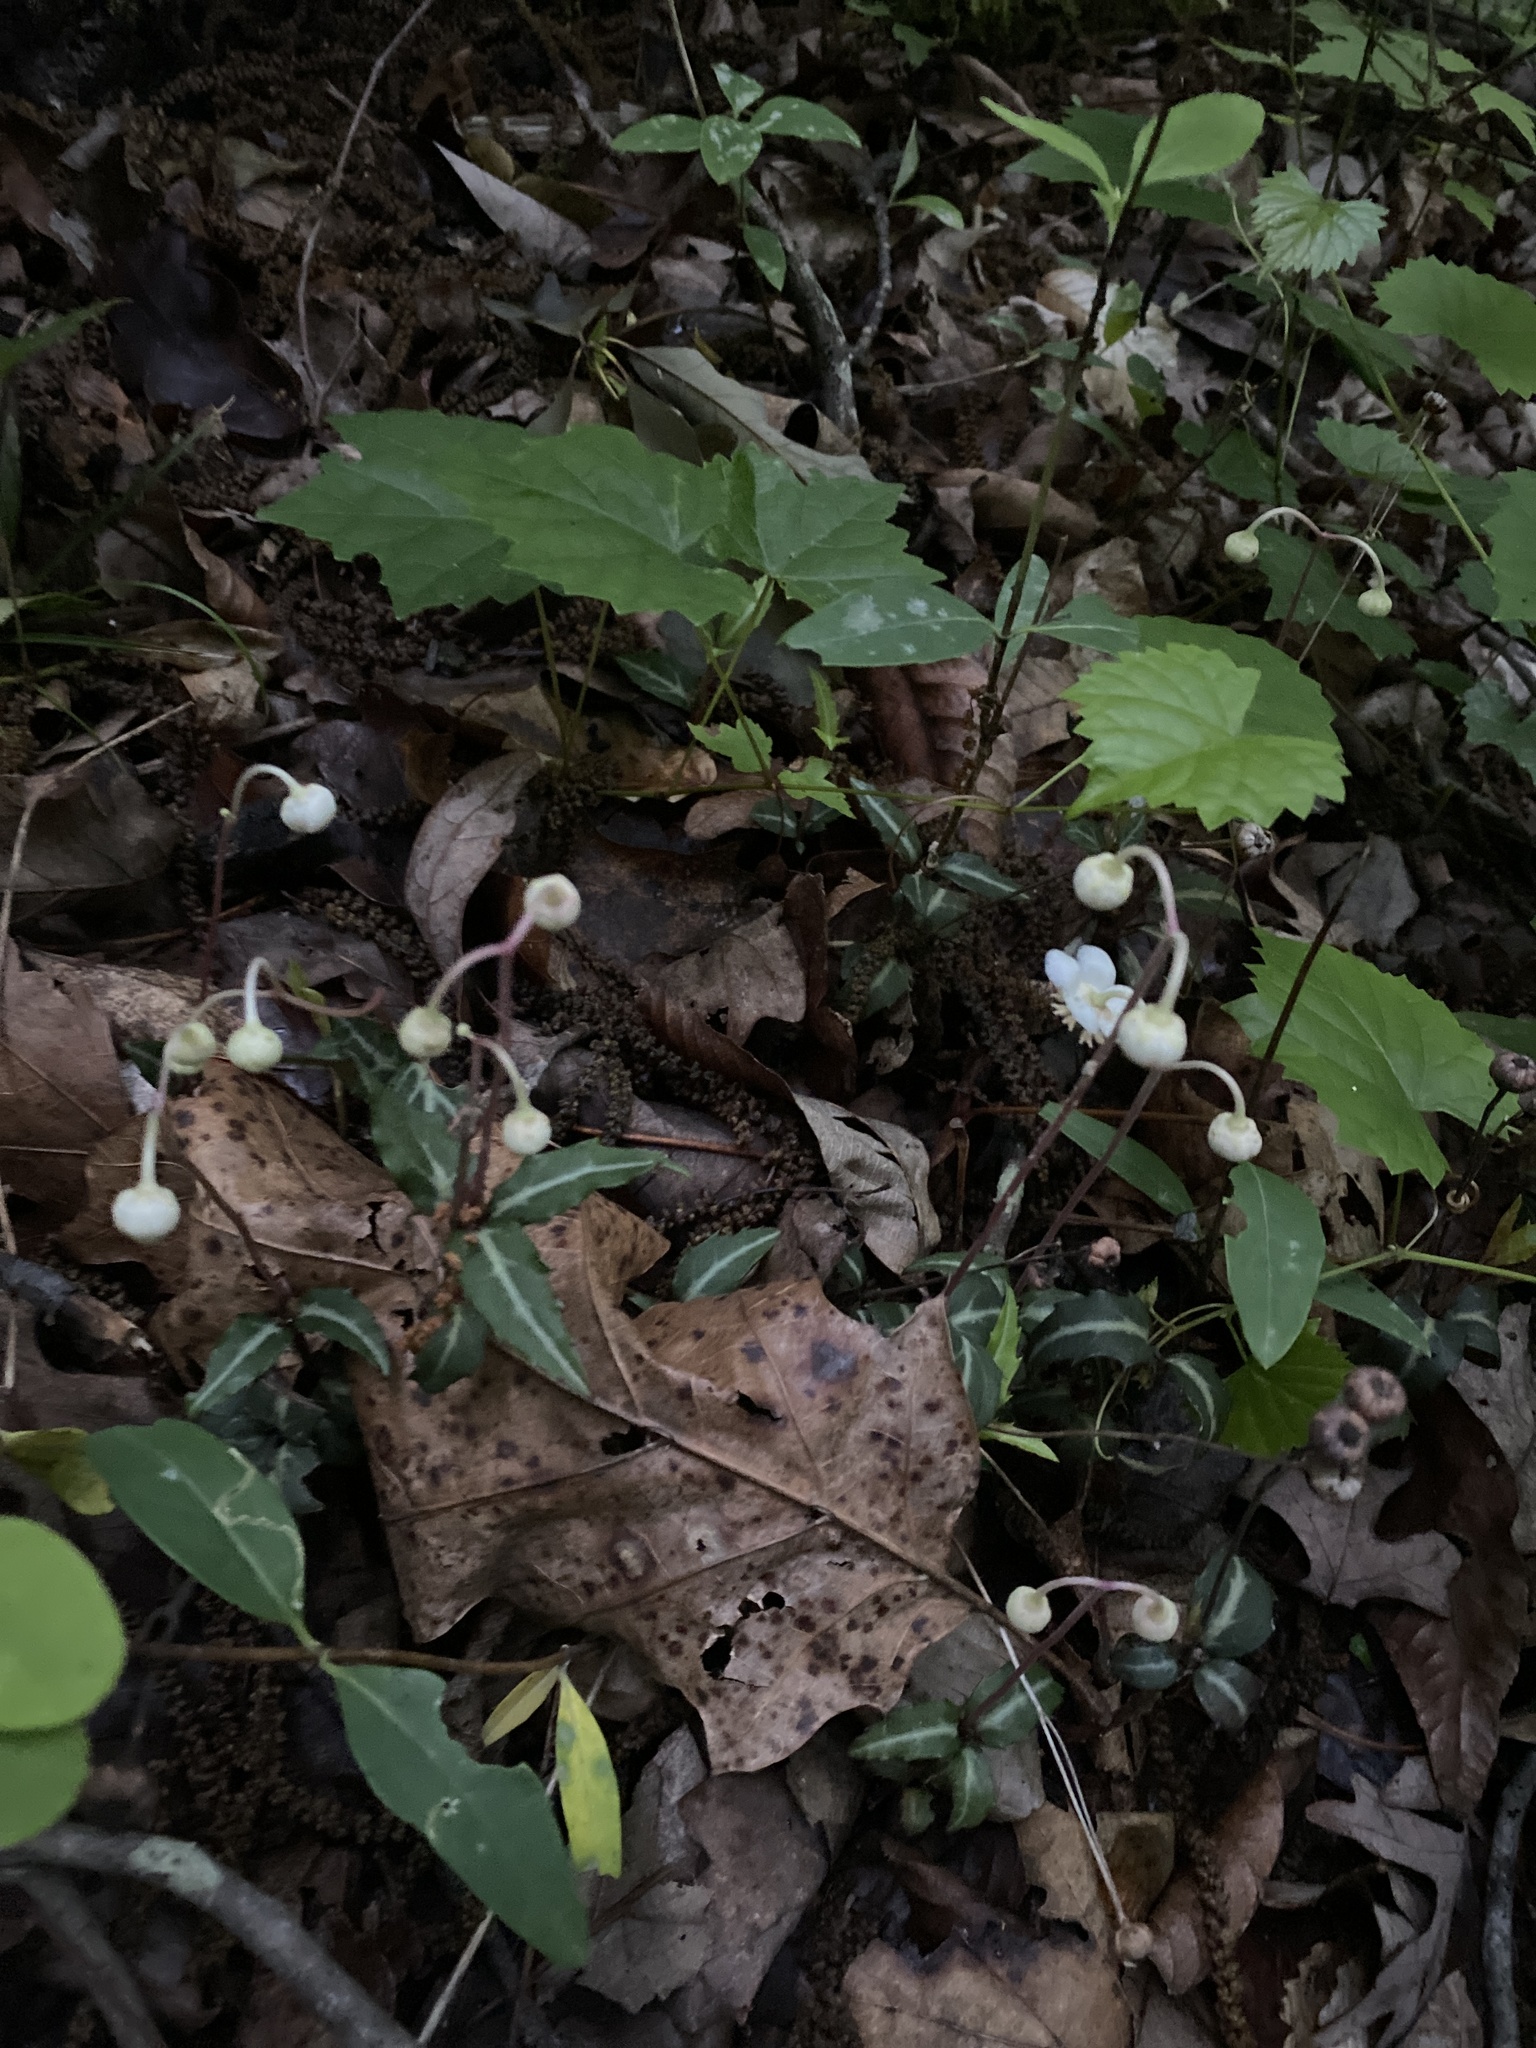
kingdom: Plantae
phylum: Tracheophyta
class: Magnoliopsida
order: Ericales
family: Ericaceae
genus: Chimaphila
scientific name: Chimaphila maculata
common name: Spotted pipsissewa
